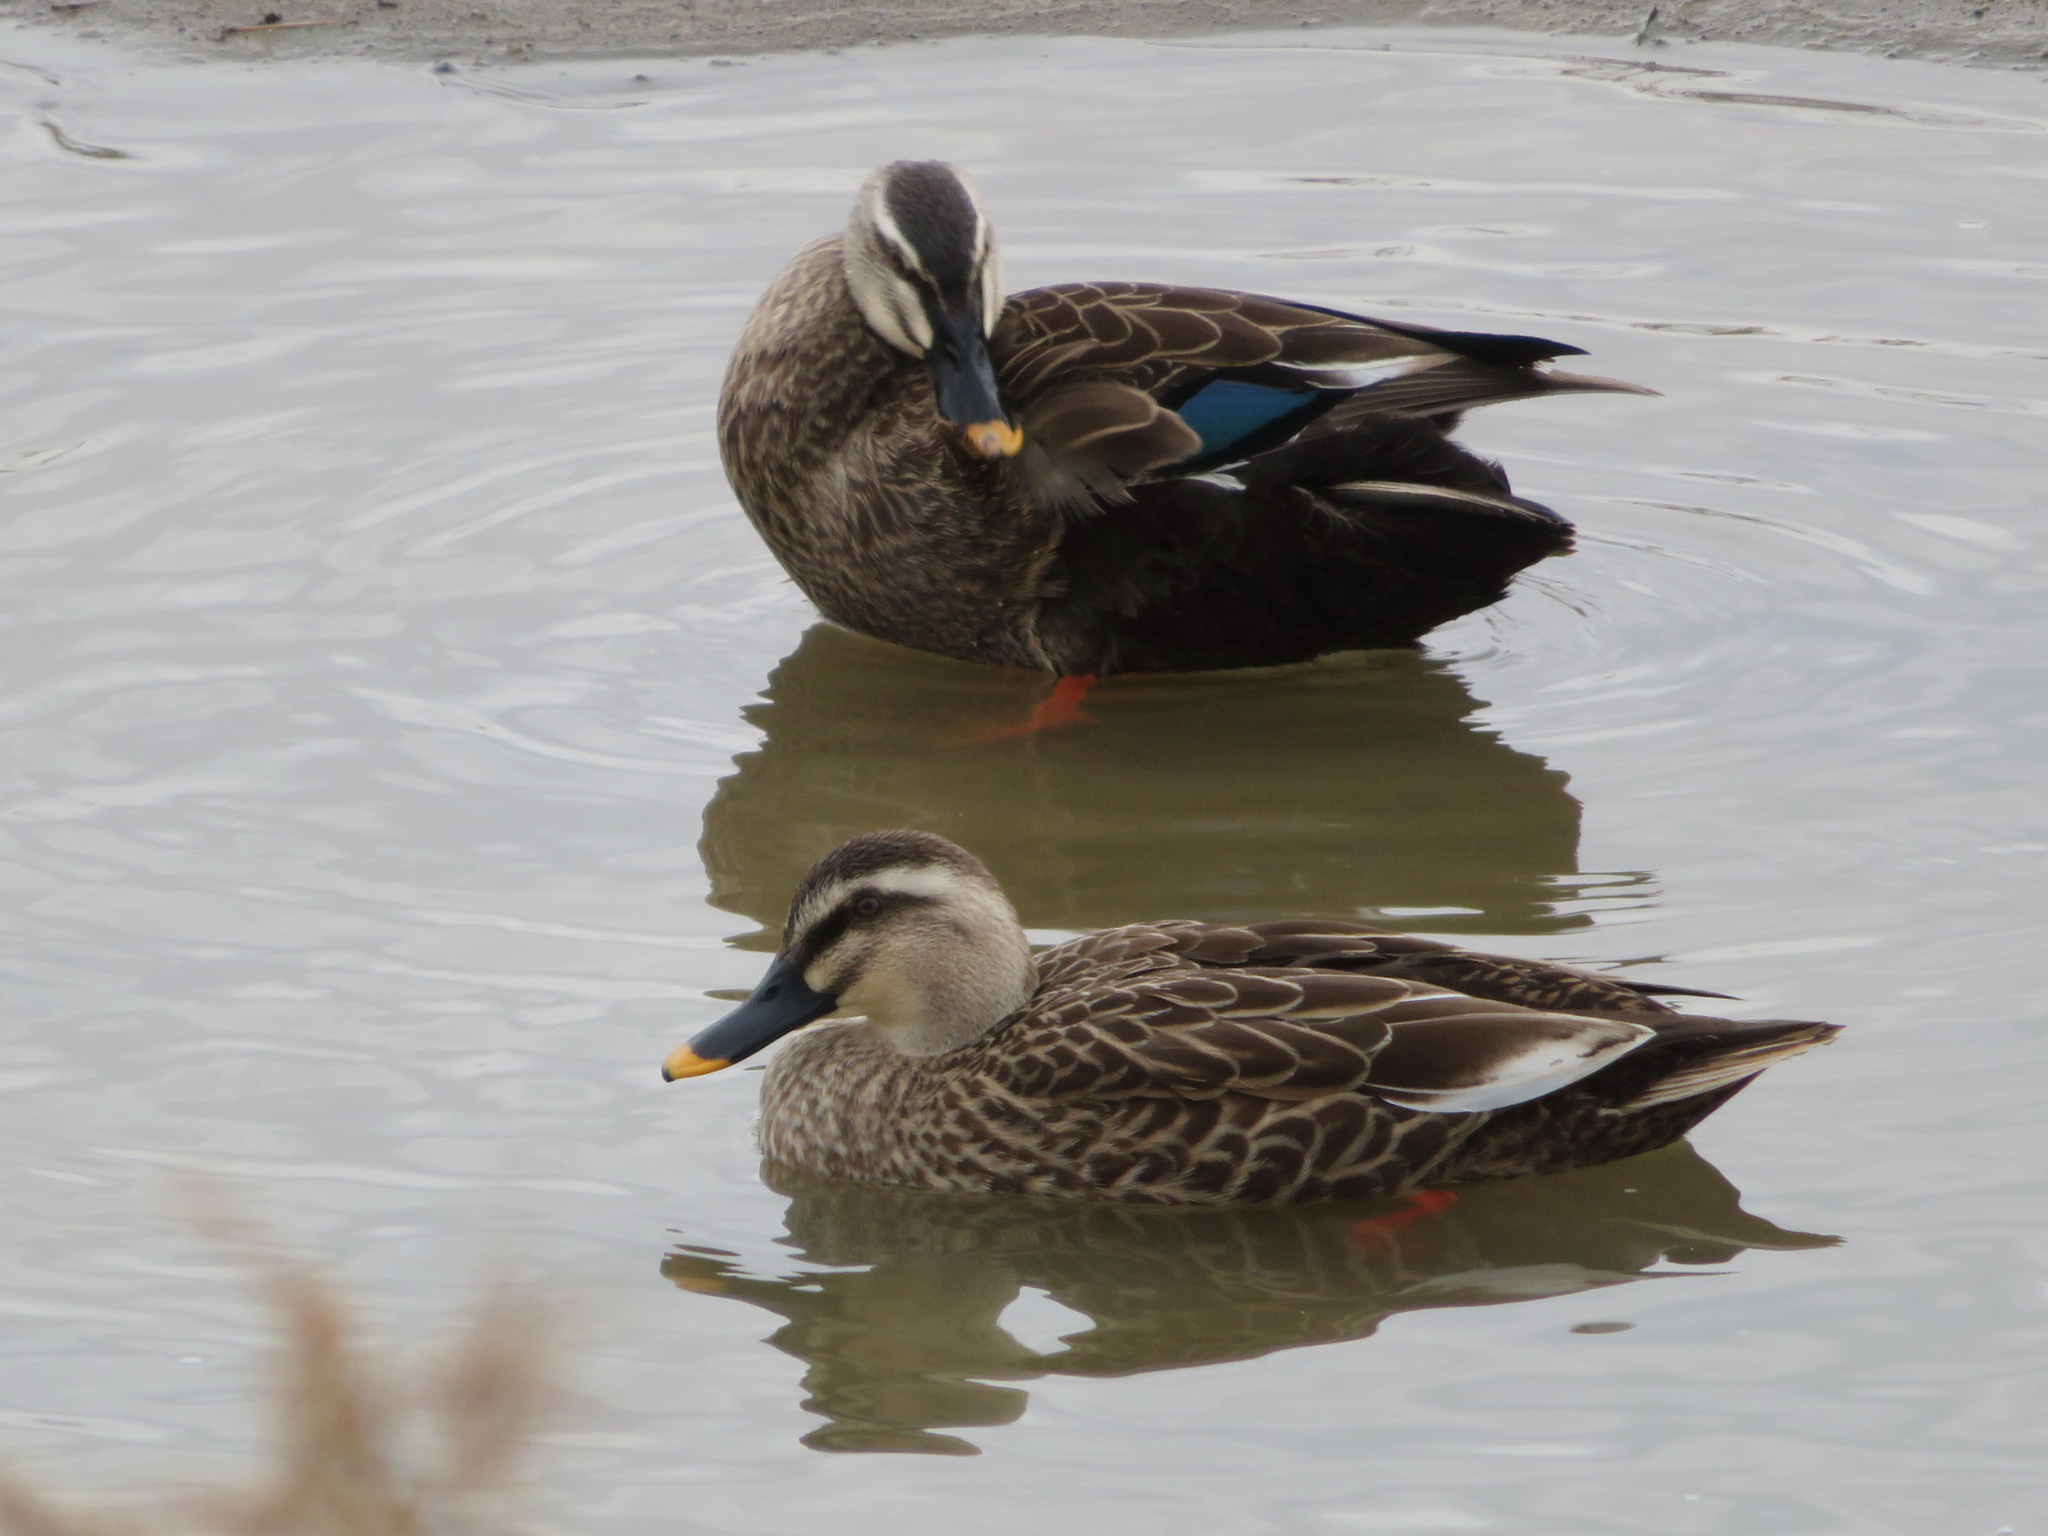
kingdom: Animalia
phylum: Chordata
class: Aves
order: Anseriformes
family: Anatidae
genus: Anas
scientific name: Anas zonorhyncha
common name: Eastern spot-billed duck
